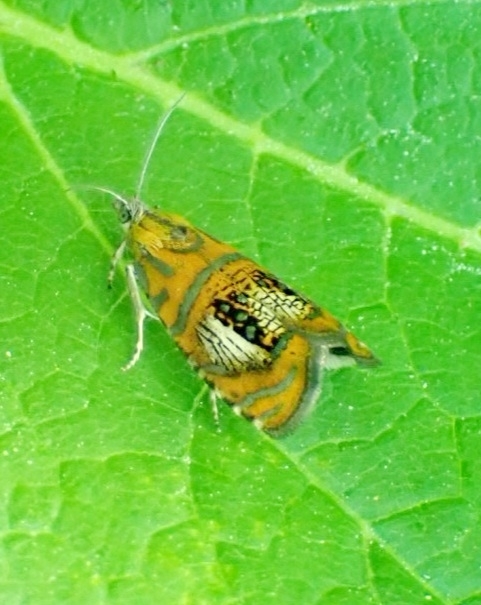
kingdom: Animalia
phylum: Arthropoda
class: Insecta
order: Lepidoptera
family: Tortricidae
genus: Olethreutes
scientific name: Olethreutes arcuella
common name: Arched marble
